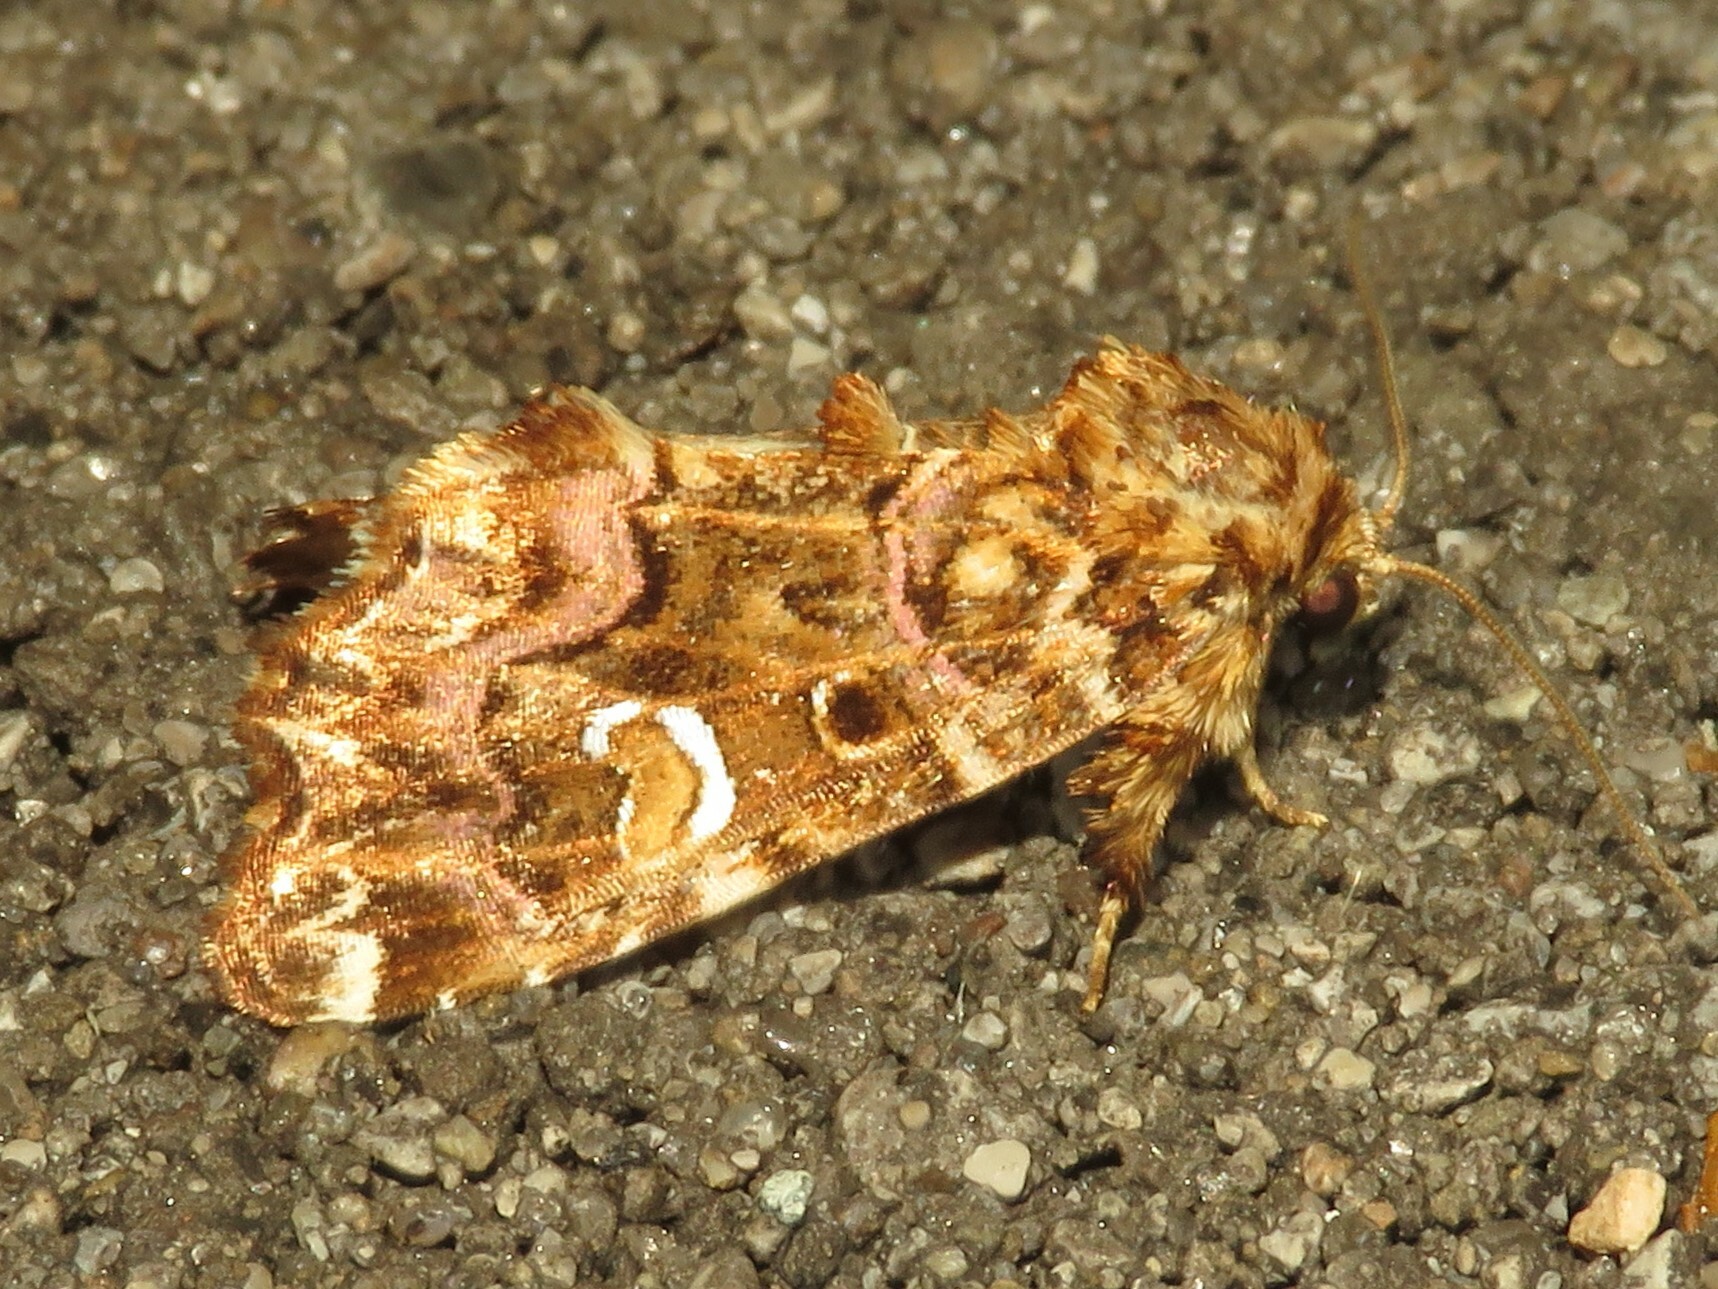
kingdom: Animalia
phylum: Arthropoda
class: Insecta
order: Lepidoptera
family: Noctuidae
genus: Callopistria
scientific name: Callopistria mollissima
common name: Pink-shaded fern moth
